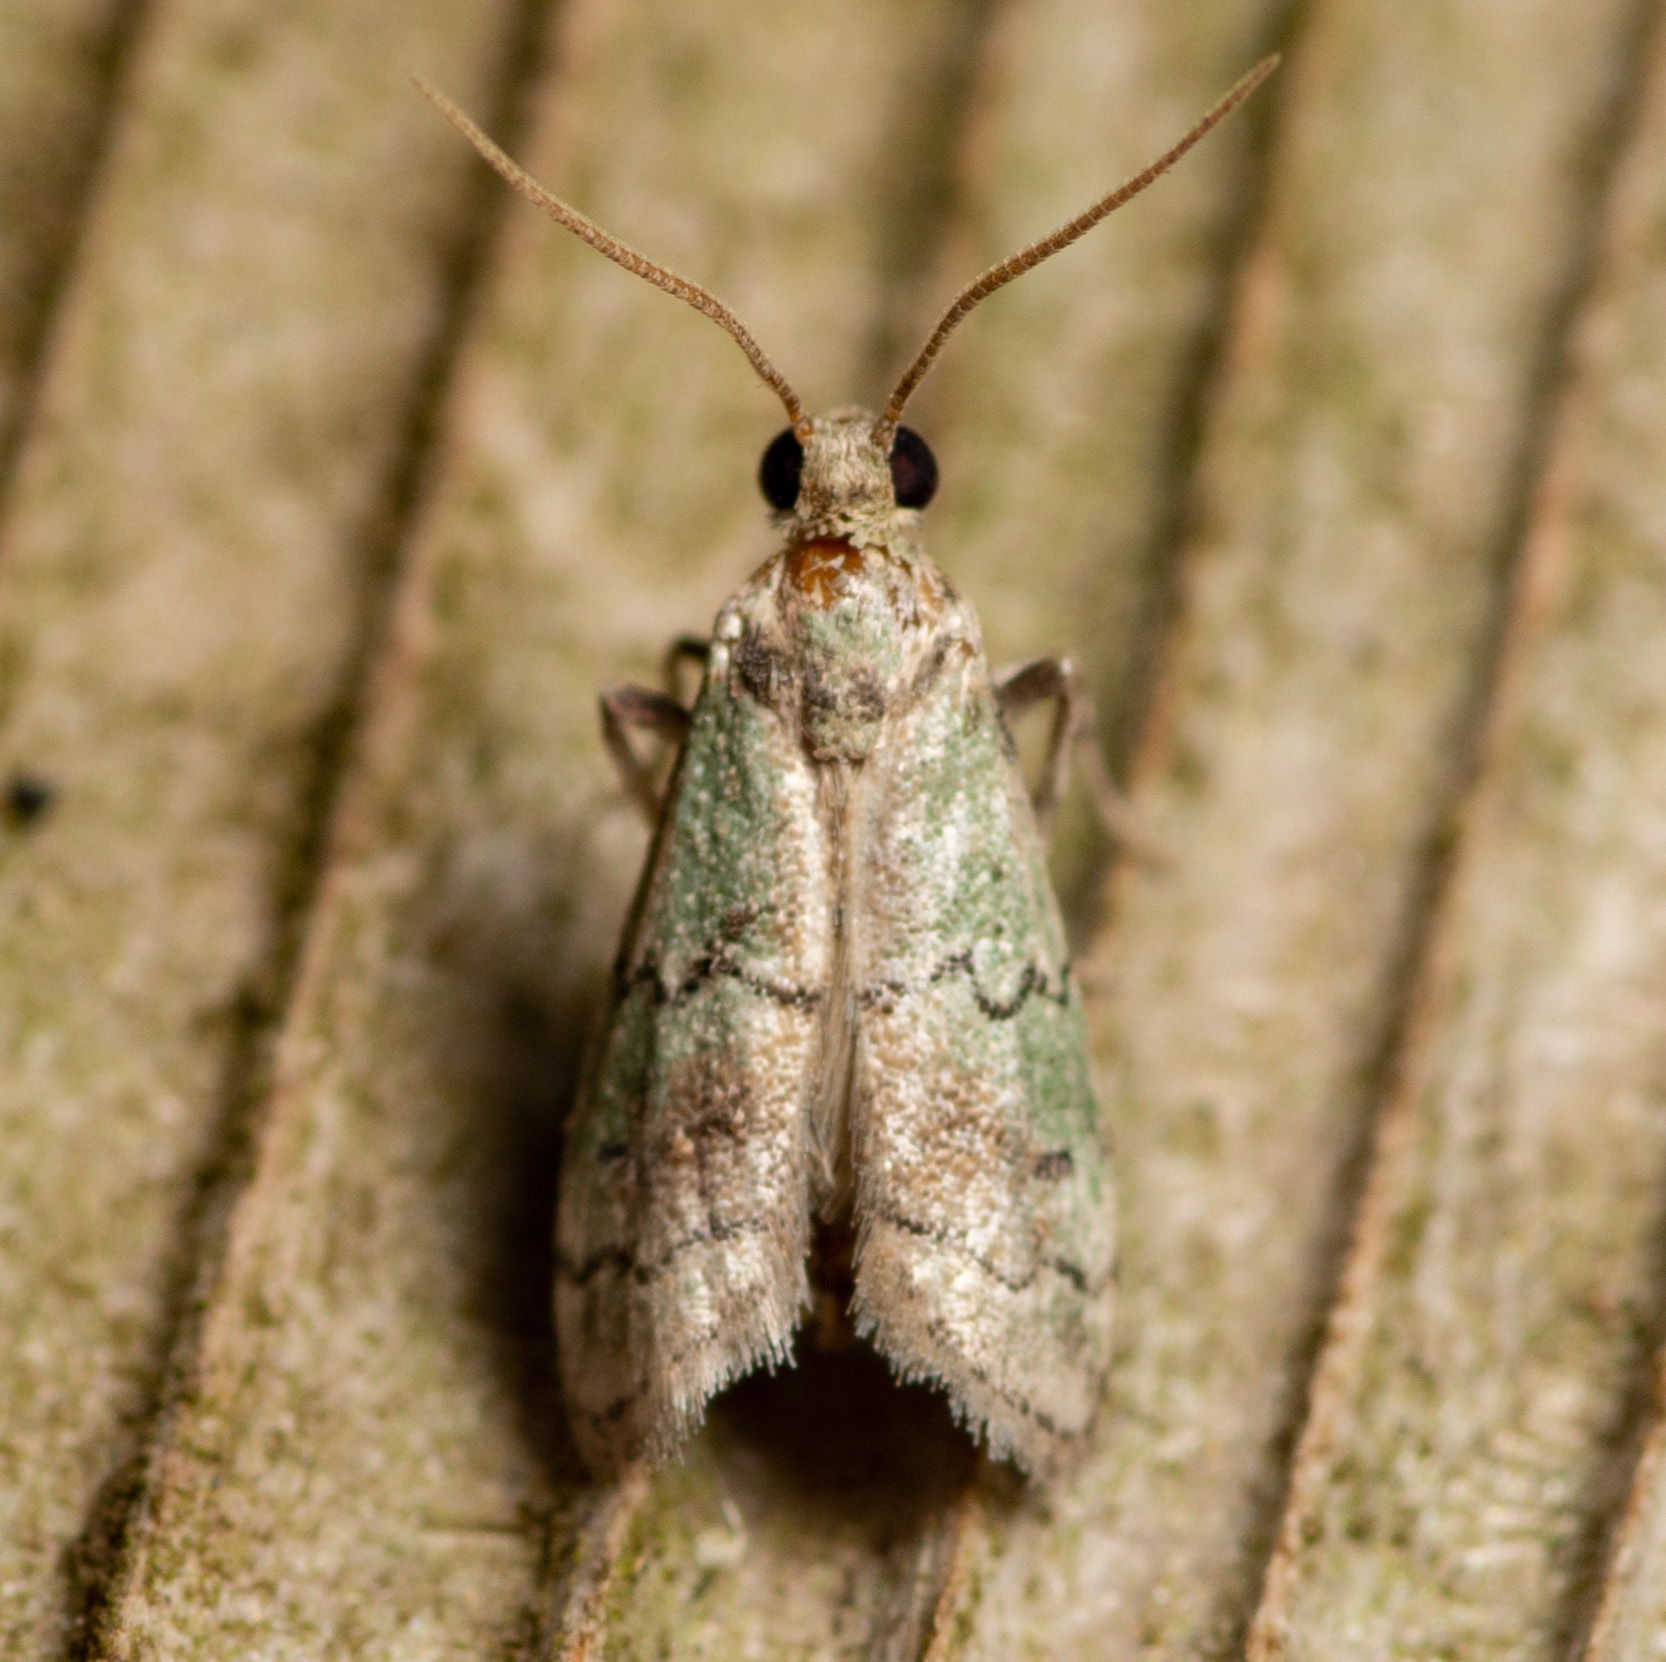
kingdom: Animalia
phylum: Arthropoda
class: Insecta
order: Lepidoptera
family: Pyralidae
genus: Cacotherapia
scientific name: Cacotherapia flexilinealis
